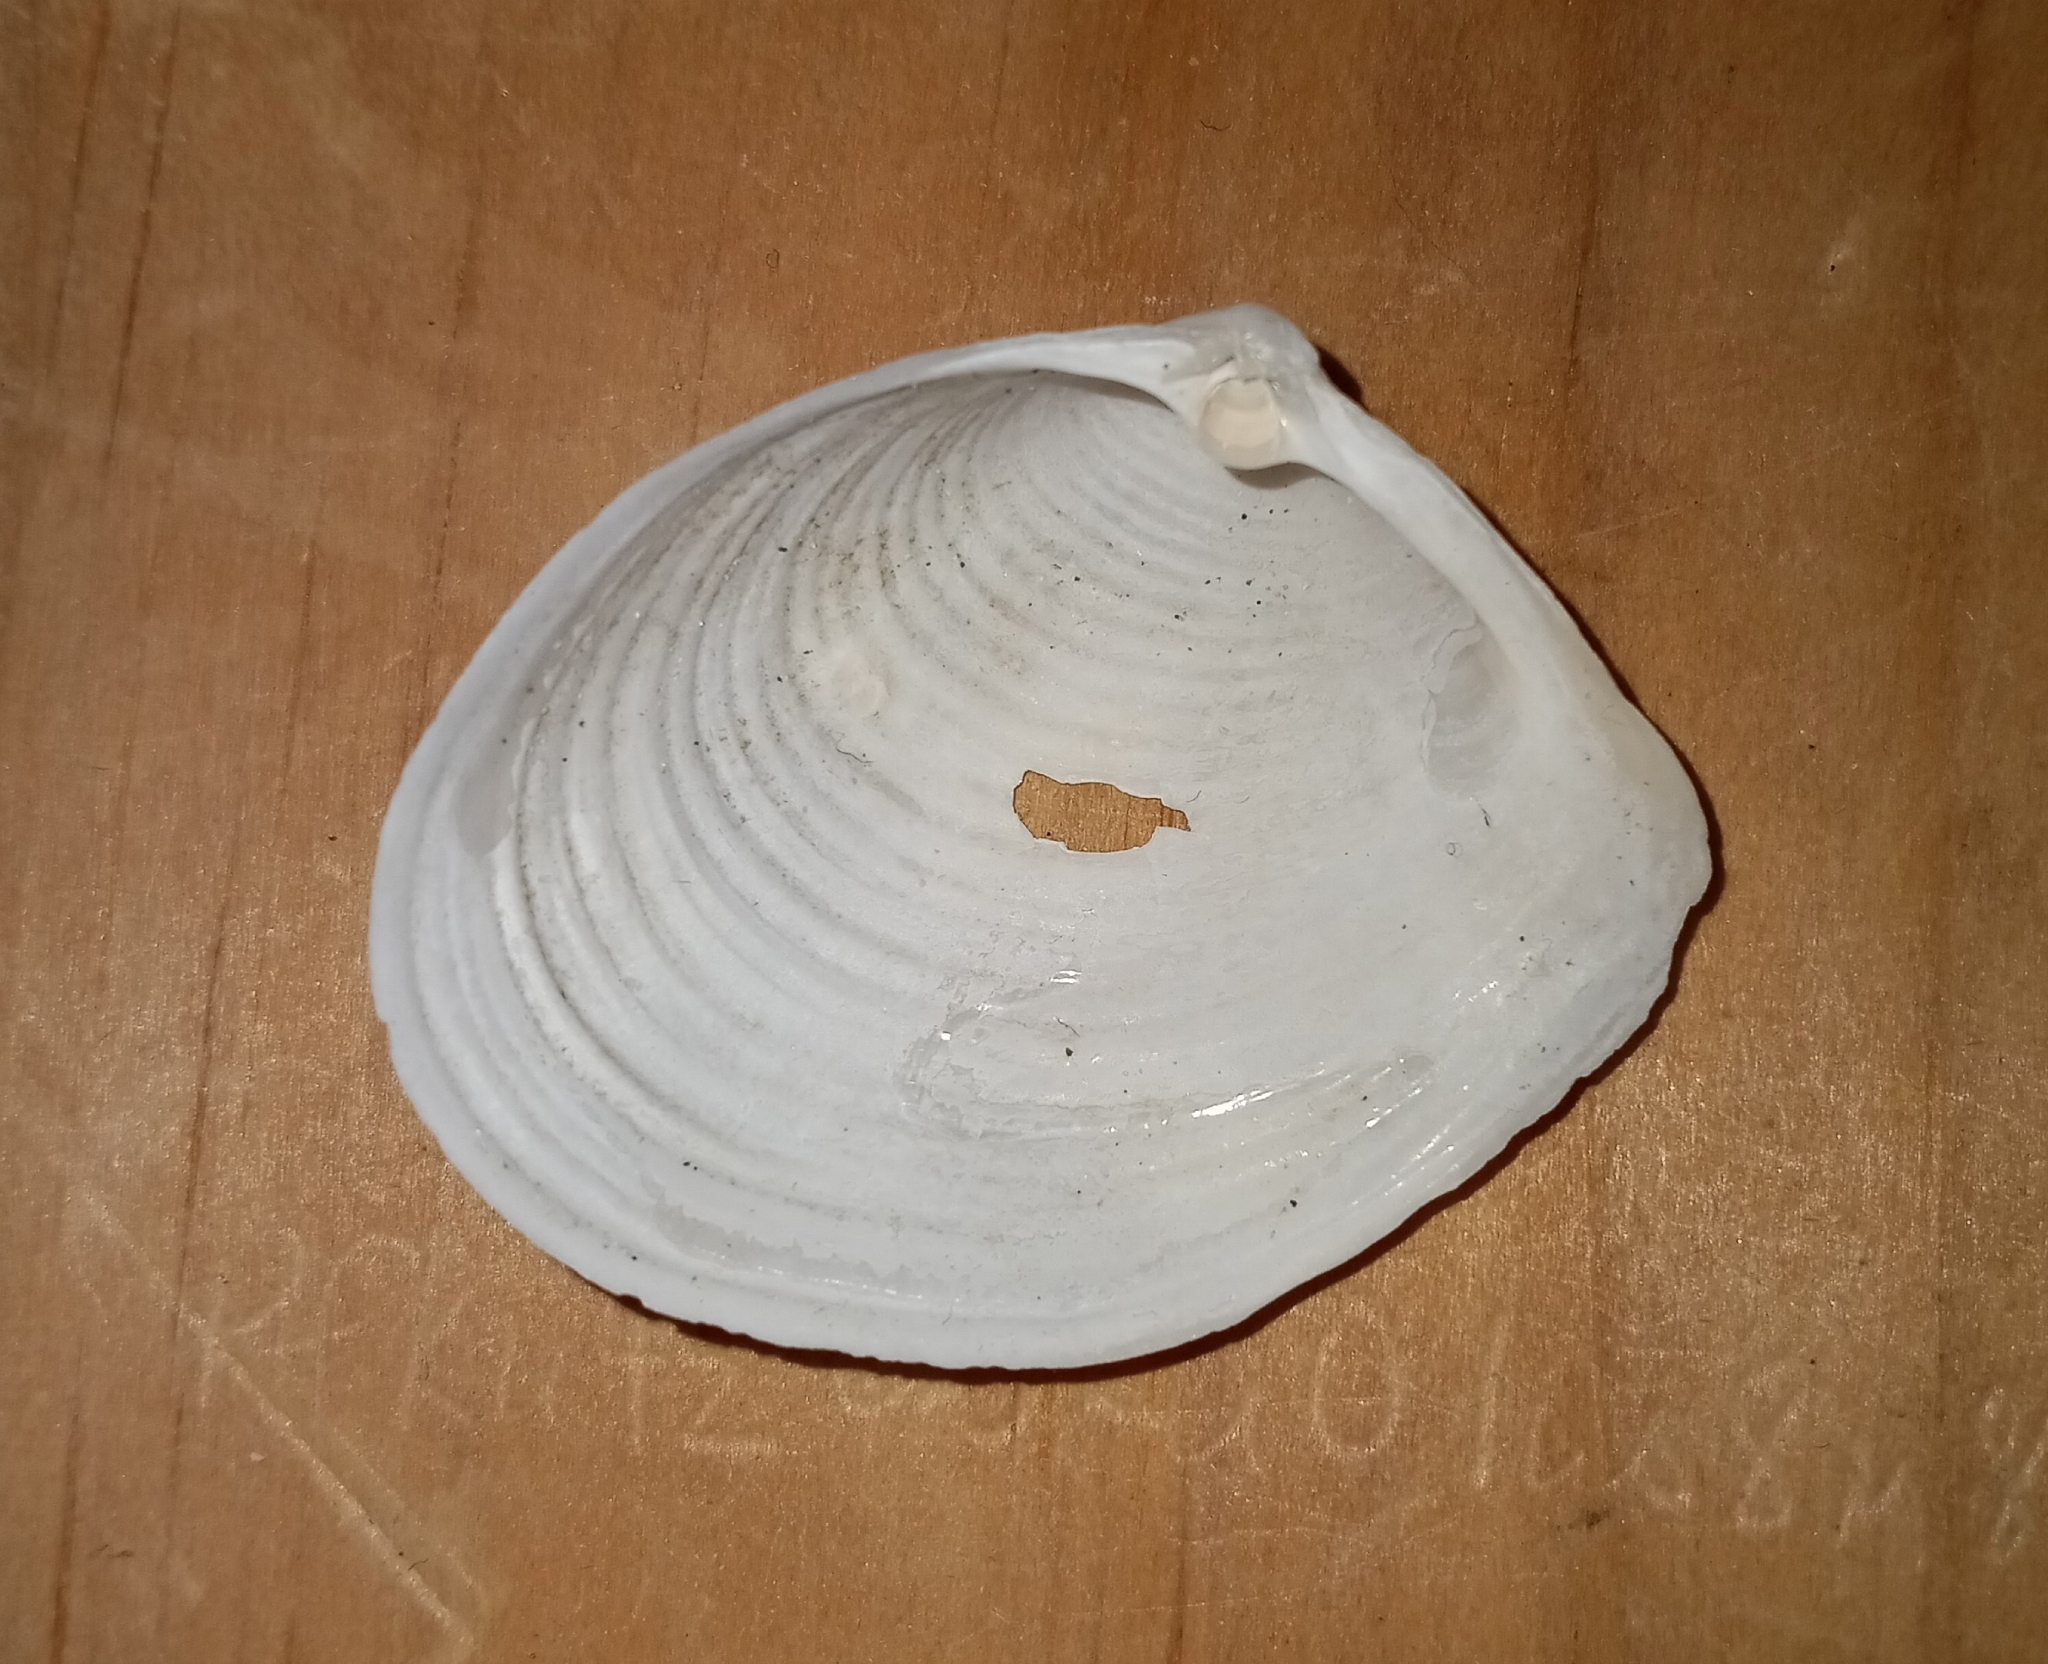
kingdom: Animalia
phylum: Mollusca
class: Bivalvia
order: Venerida
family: Anatinellidae
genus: Raeta
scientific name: Raeta plicatella
